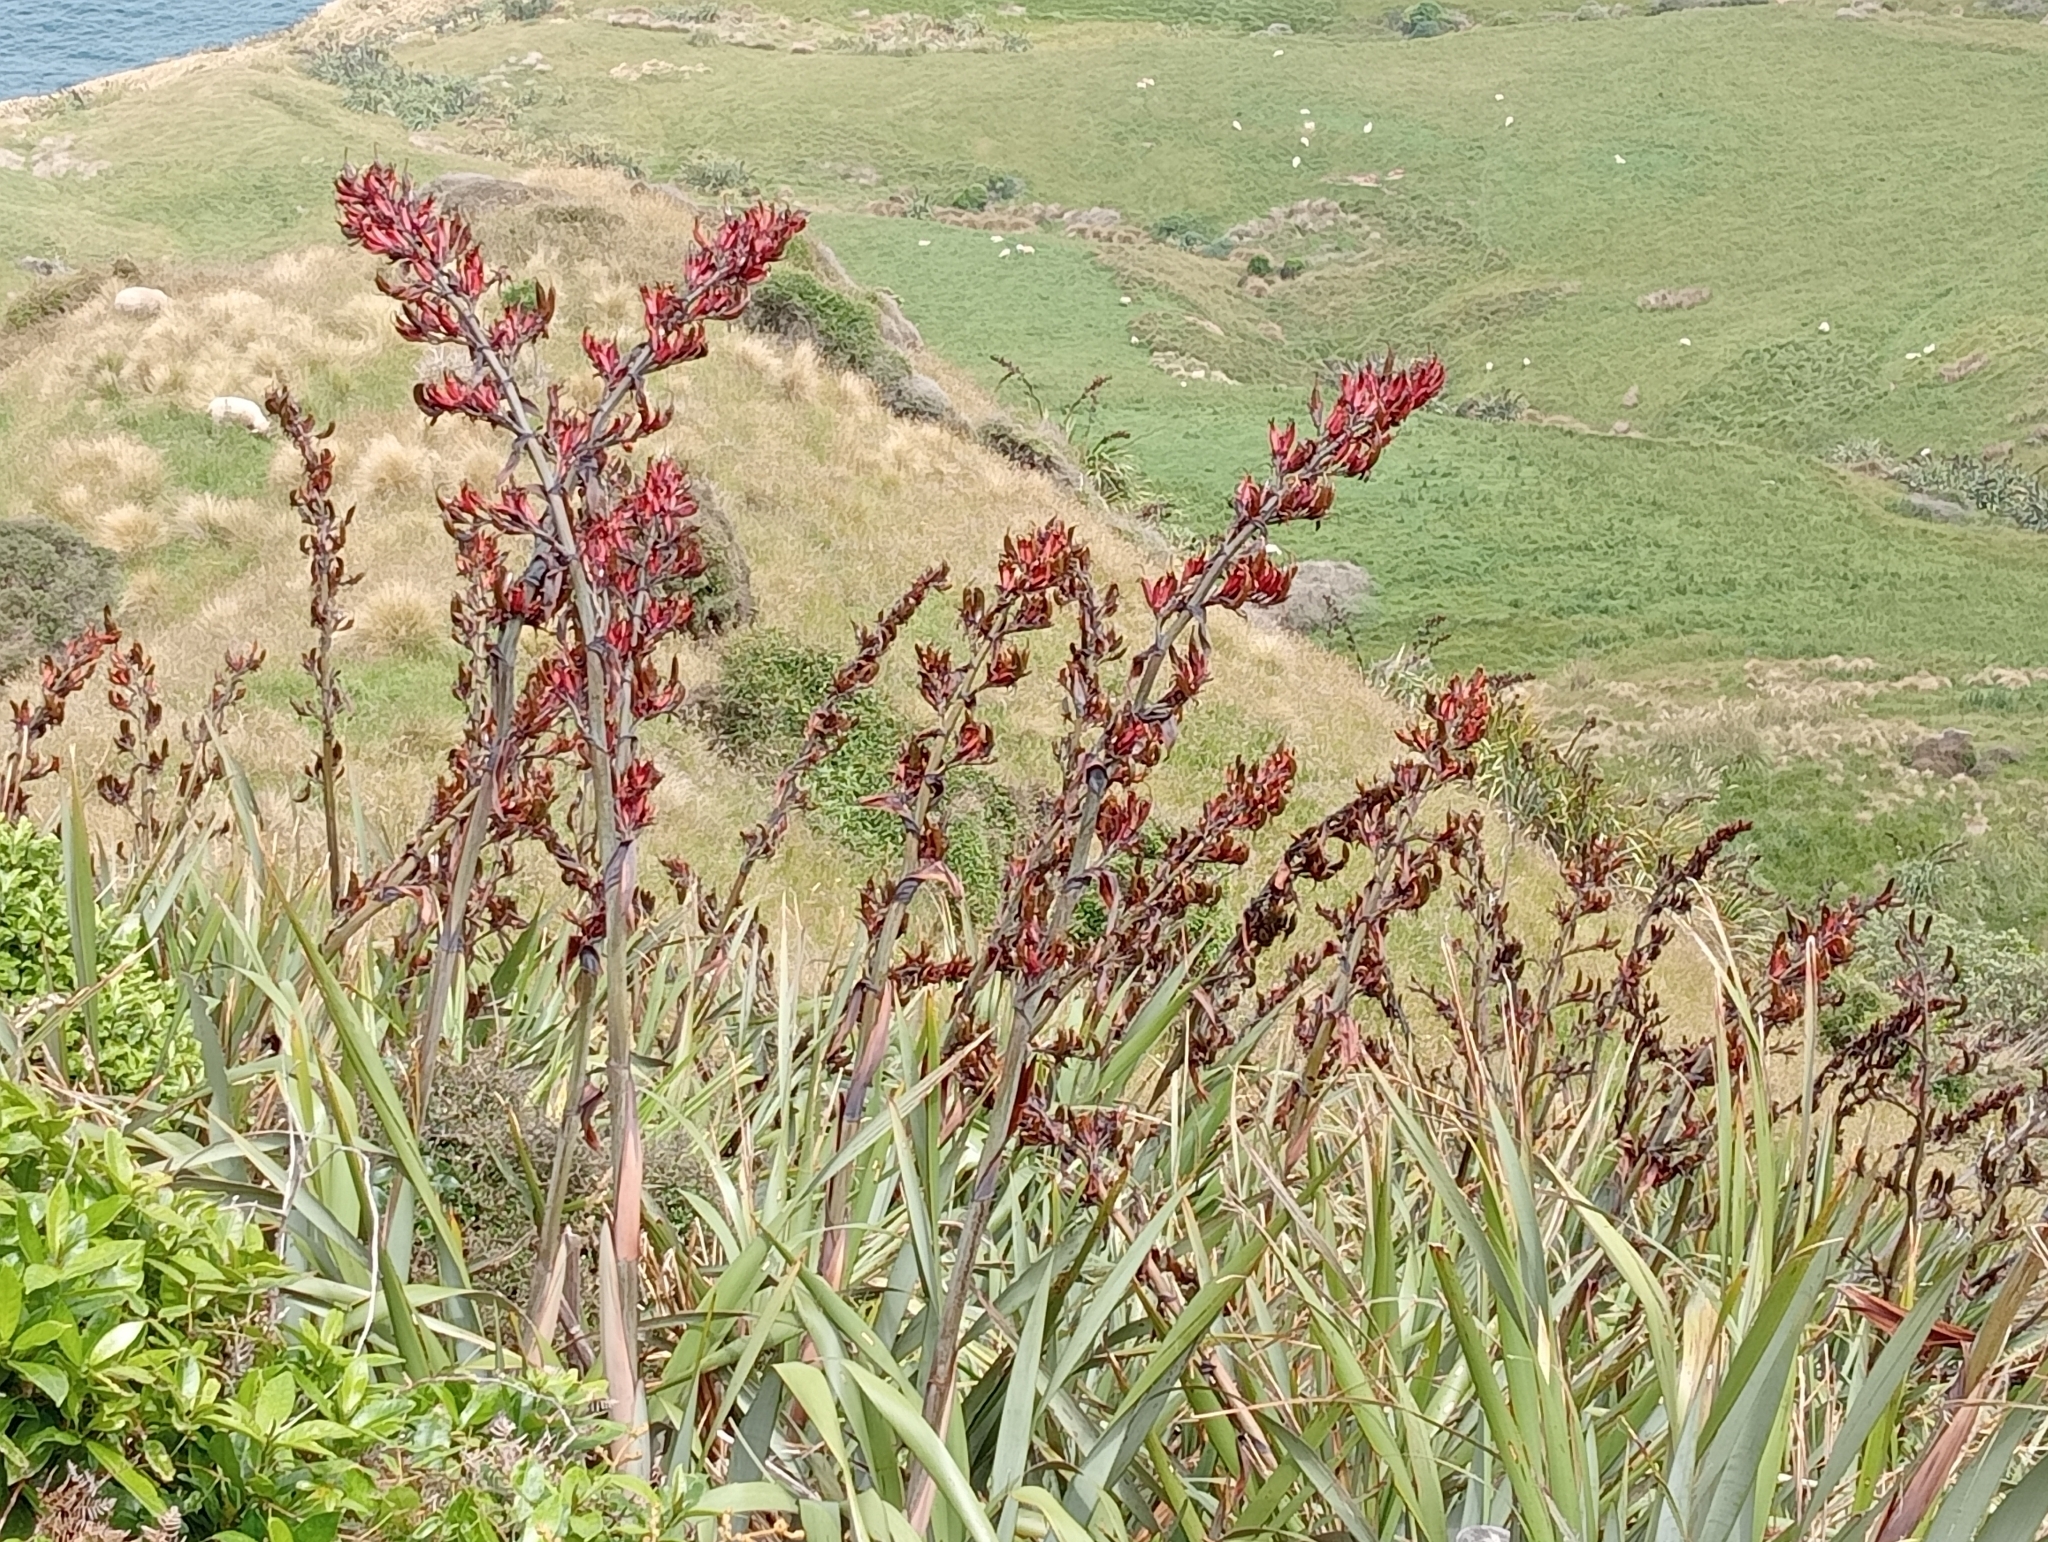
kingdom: Plantae
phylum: Tracheophyta
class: Liliopsida
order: Asparagales
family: Asphodelaceae
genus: Phormium
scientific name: Phormium tenax
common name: New zealand flax
